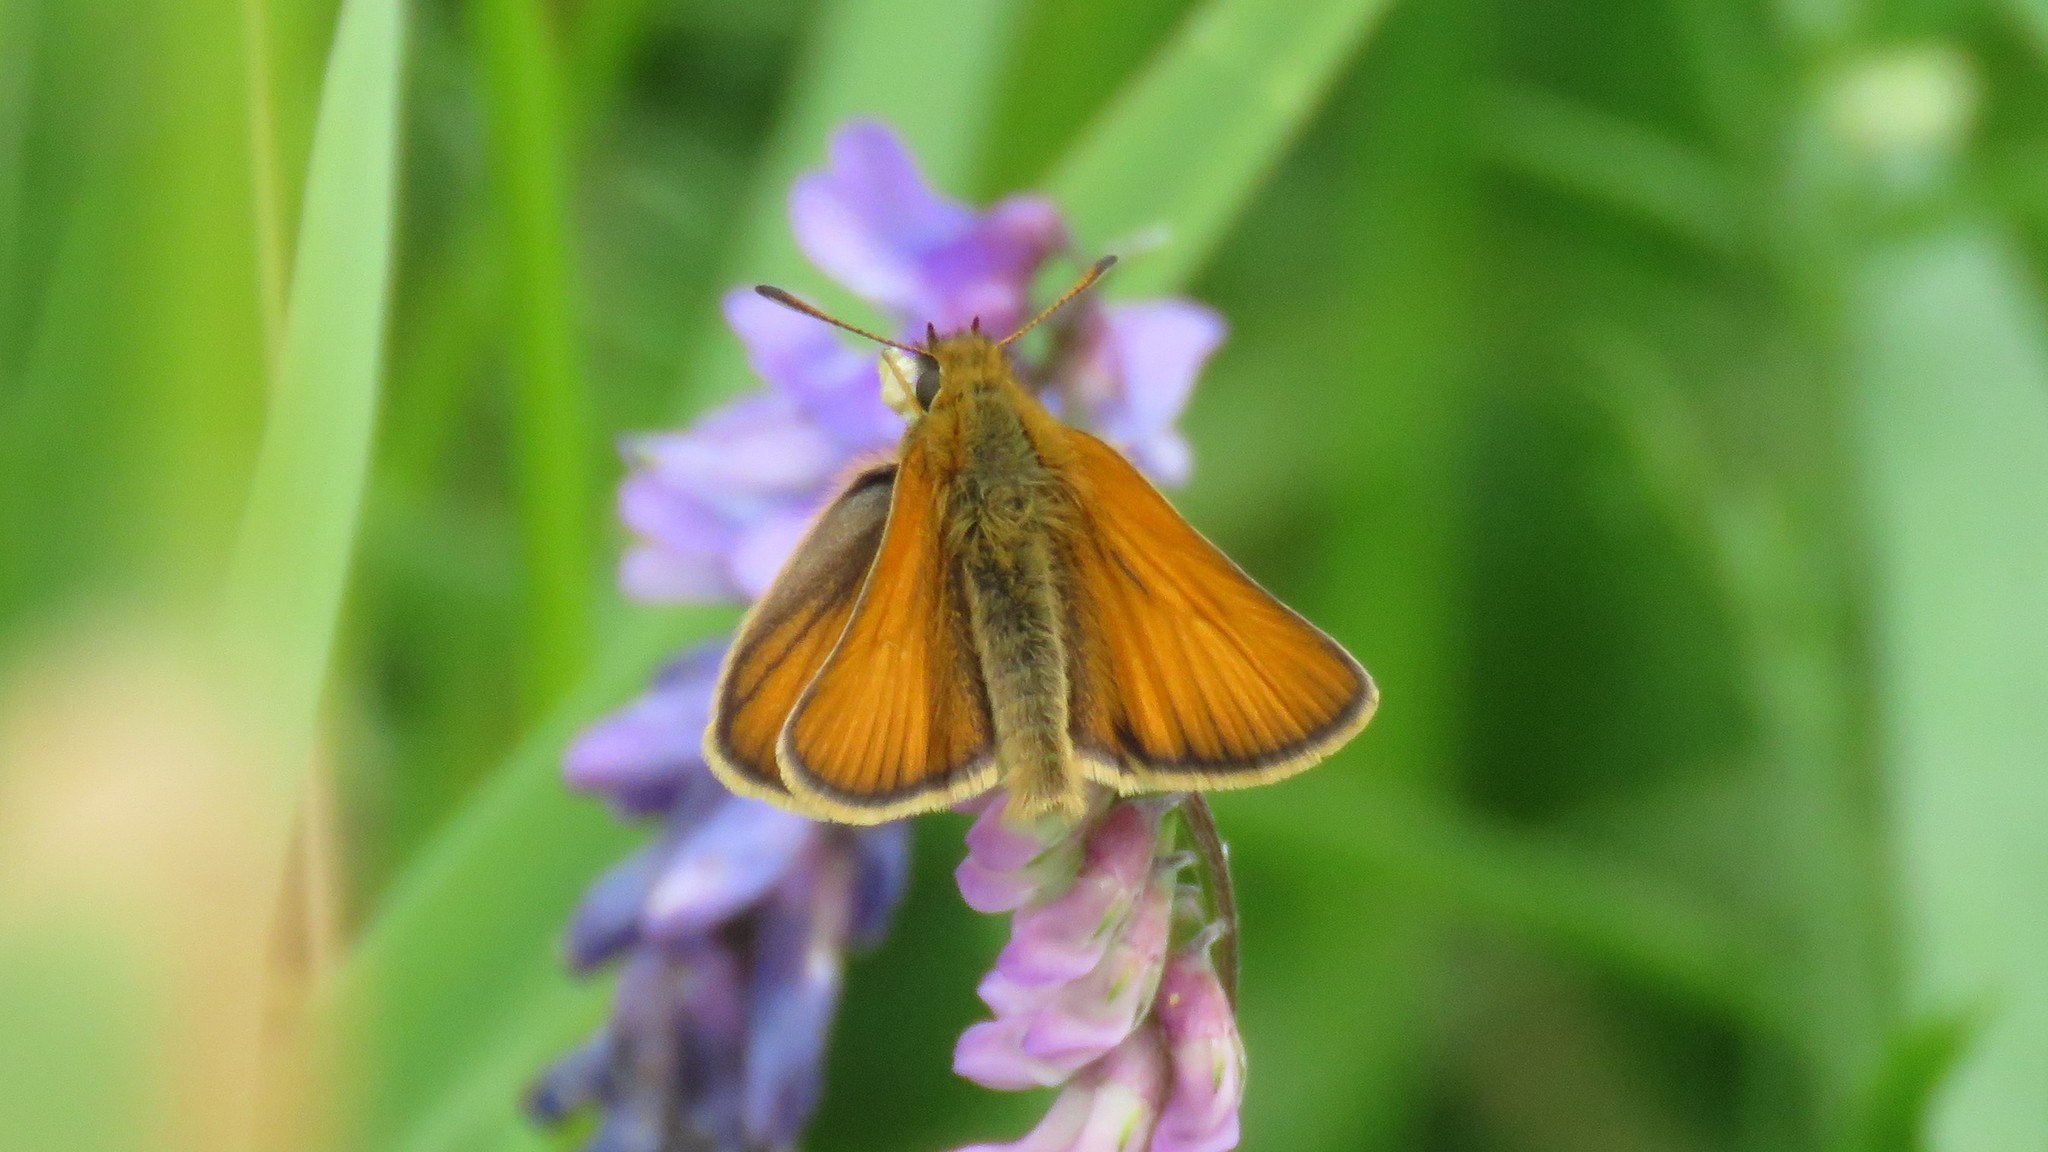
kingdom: Animalia
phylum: Arthropoda
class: Insecta
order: Lepidoptera
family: Hesperiidae
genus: Thymelicus
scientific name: Thymelicus lineola
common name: Essex skipper
